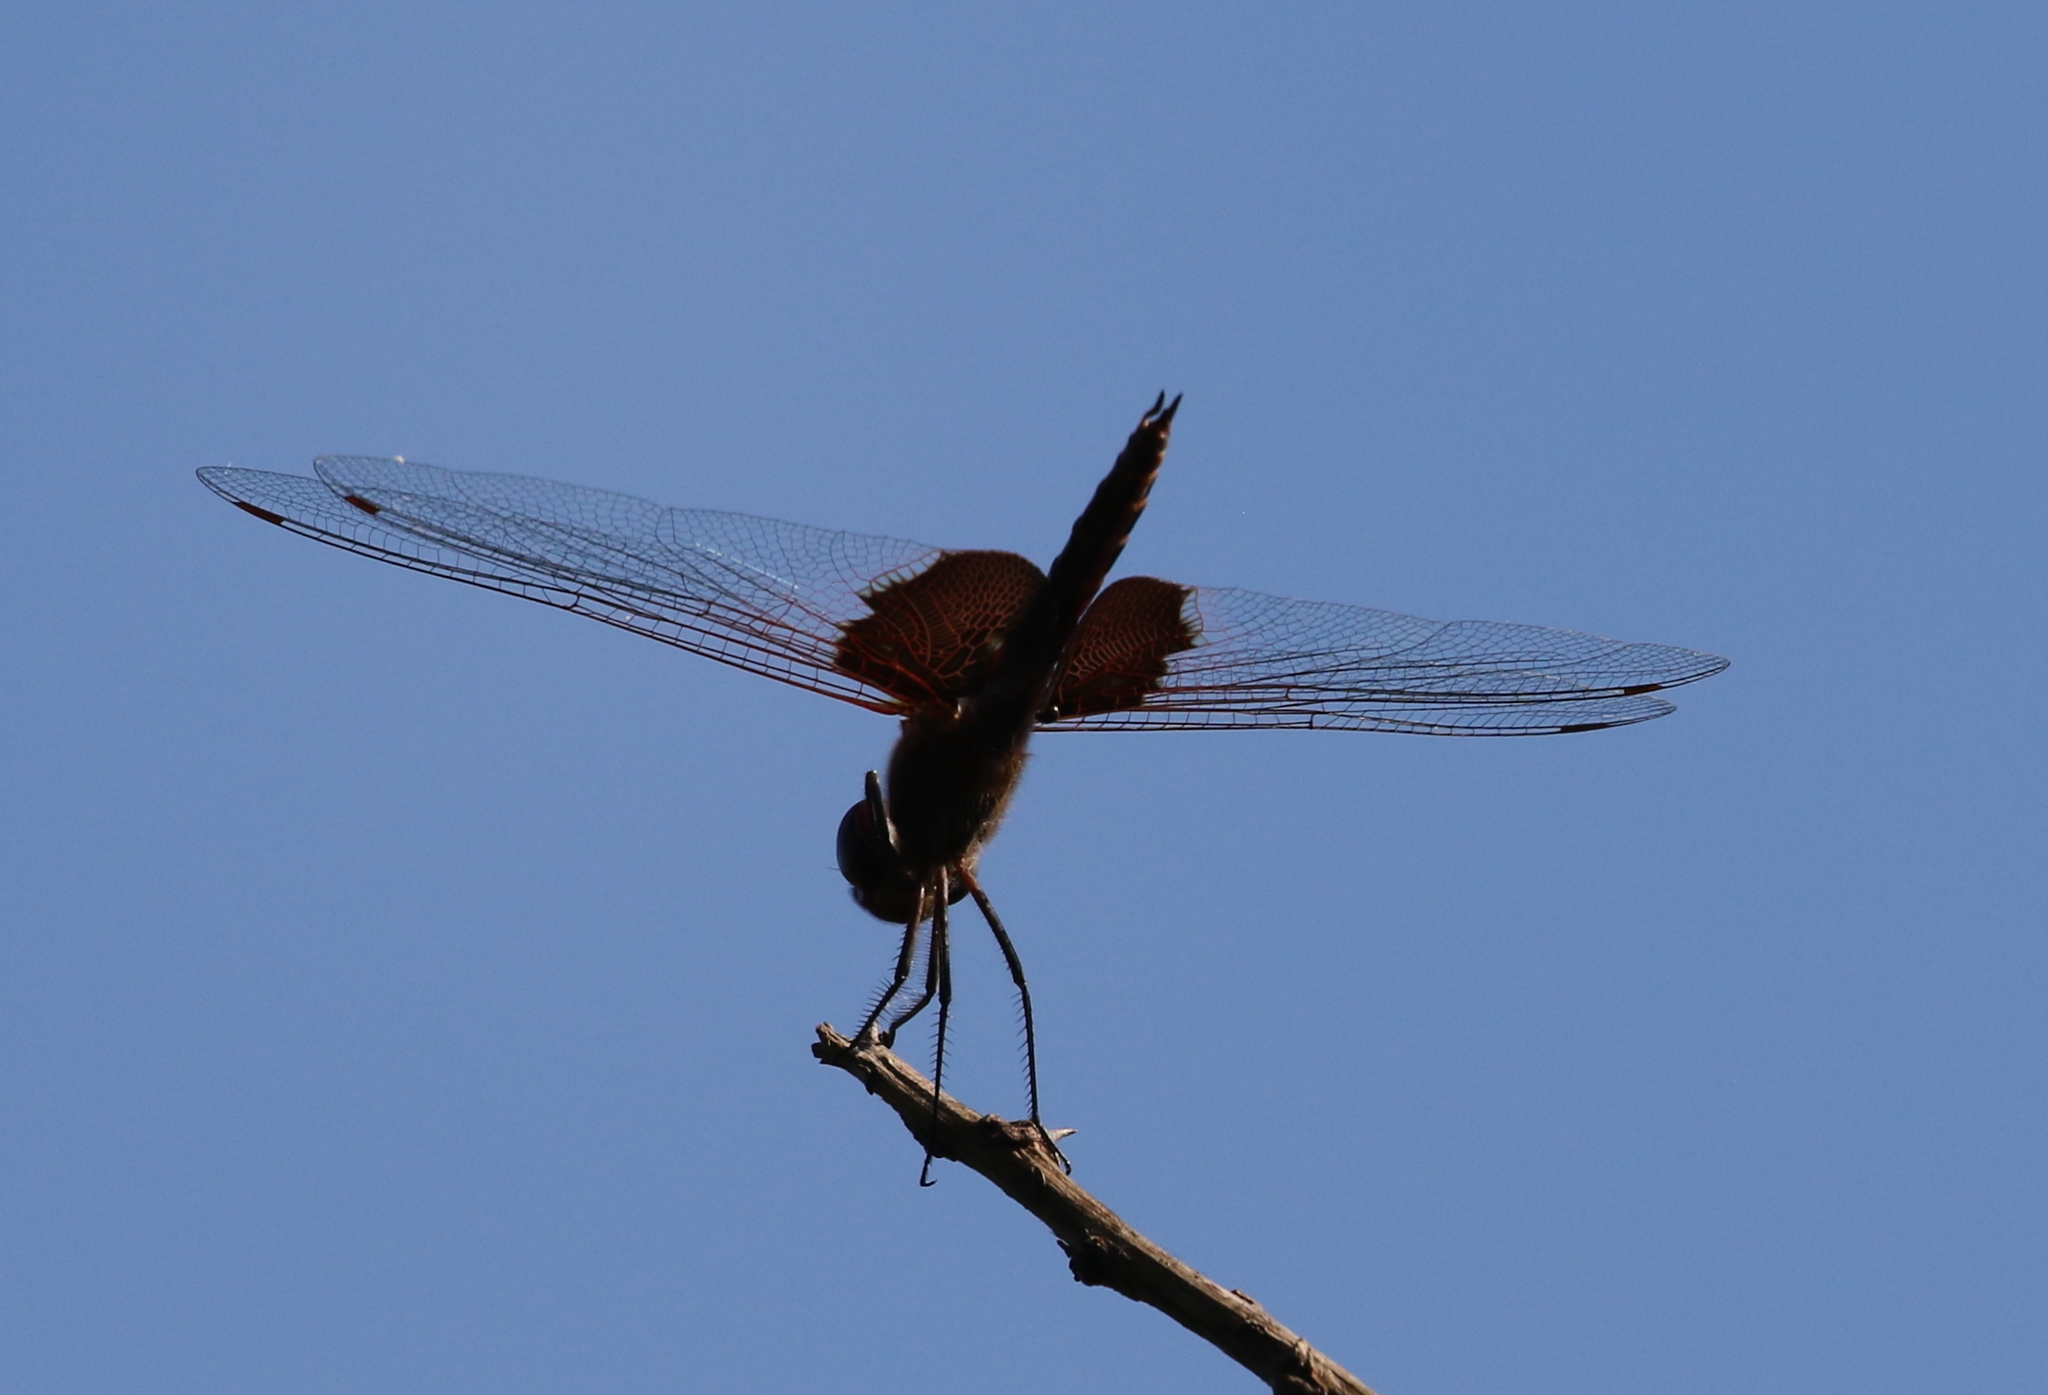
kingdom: Animalia
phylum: Arthropoda
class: Insecta
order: Odonata
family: Libellulidae
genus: Tramea
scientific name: Tramea onusta
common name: Red saddlebags
